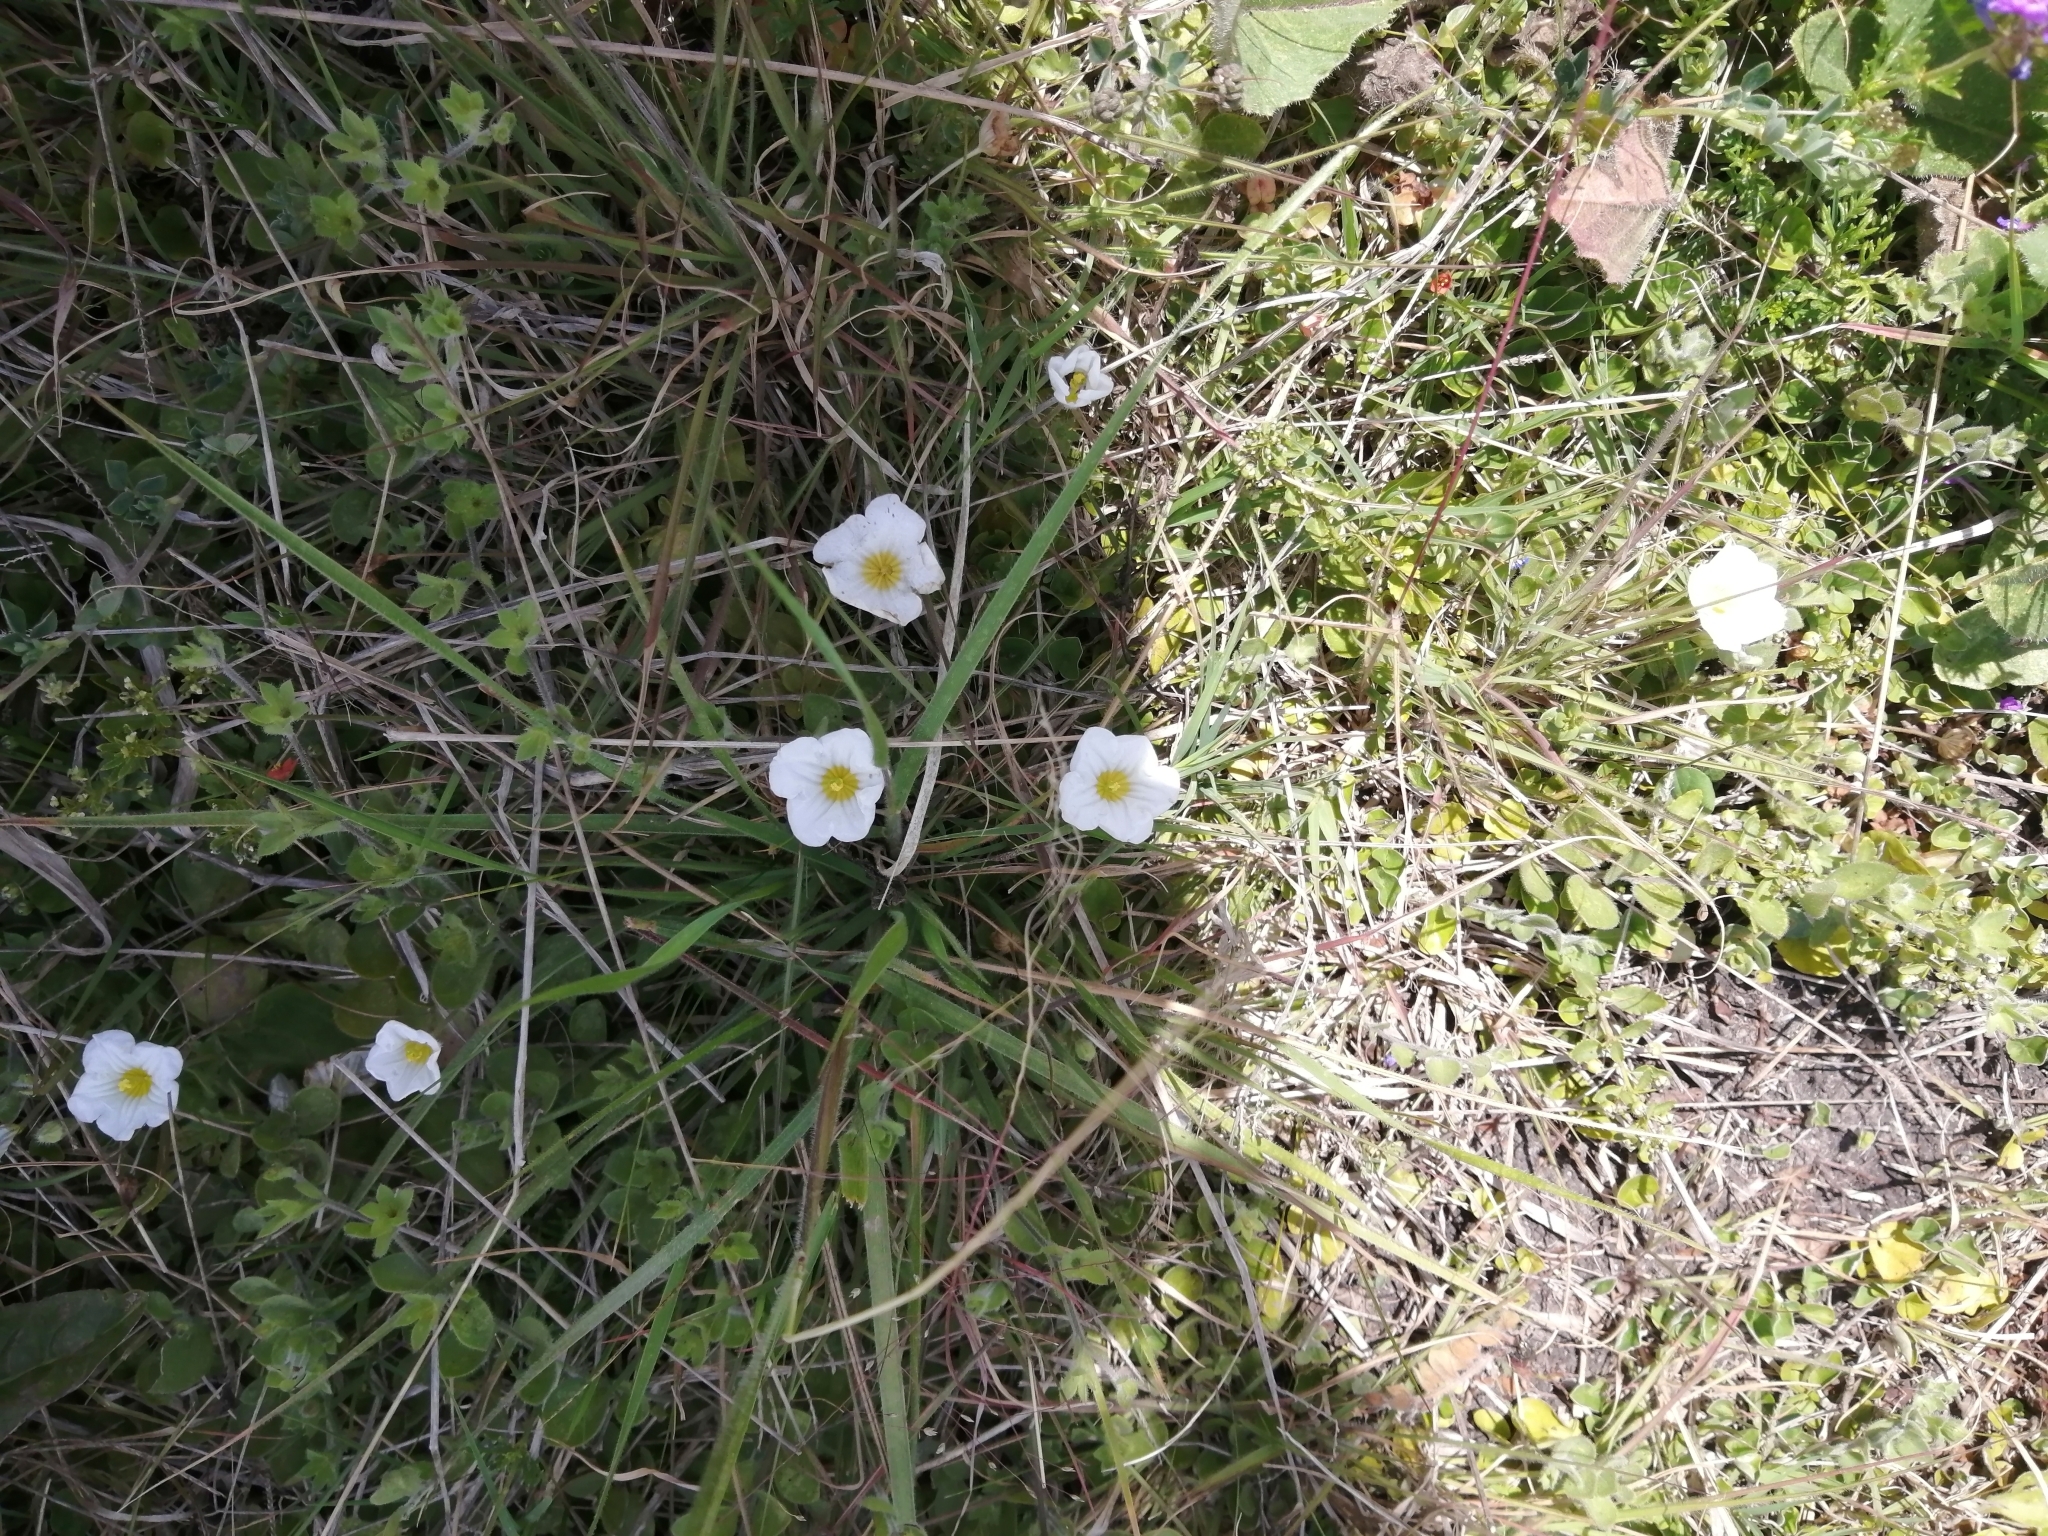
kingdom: Plantae
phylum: Tracheophyta
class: Magnoliopsida
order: Solanales
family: Solanaceae
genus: Nierembergia
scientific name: Nierembergia calycina
